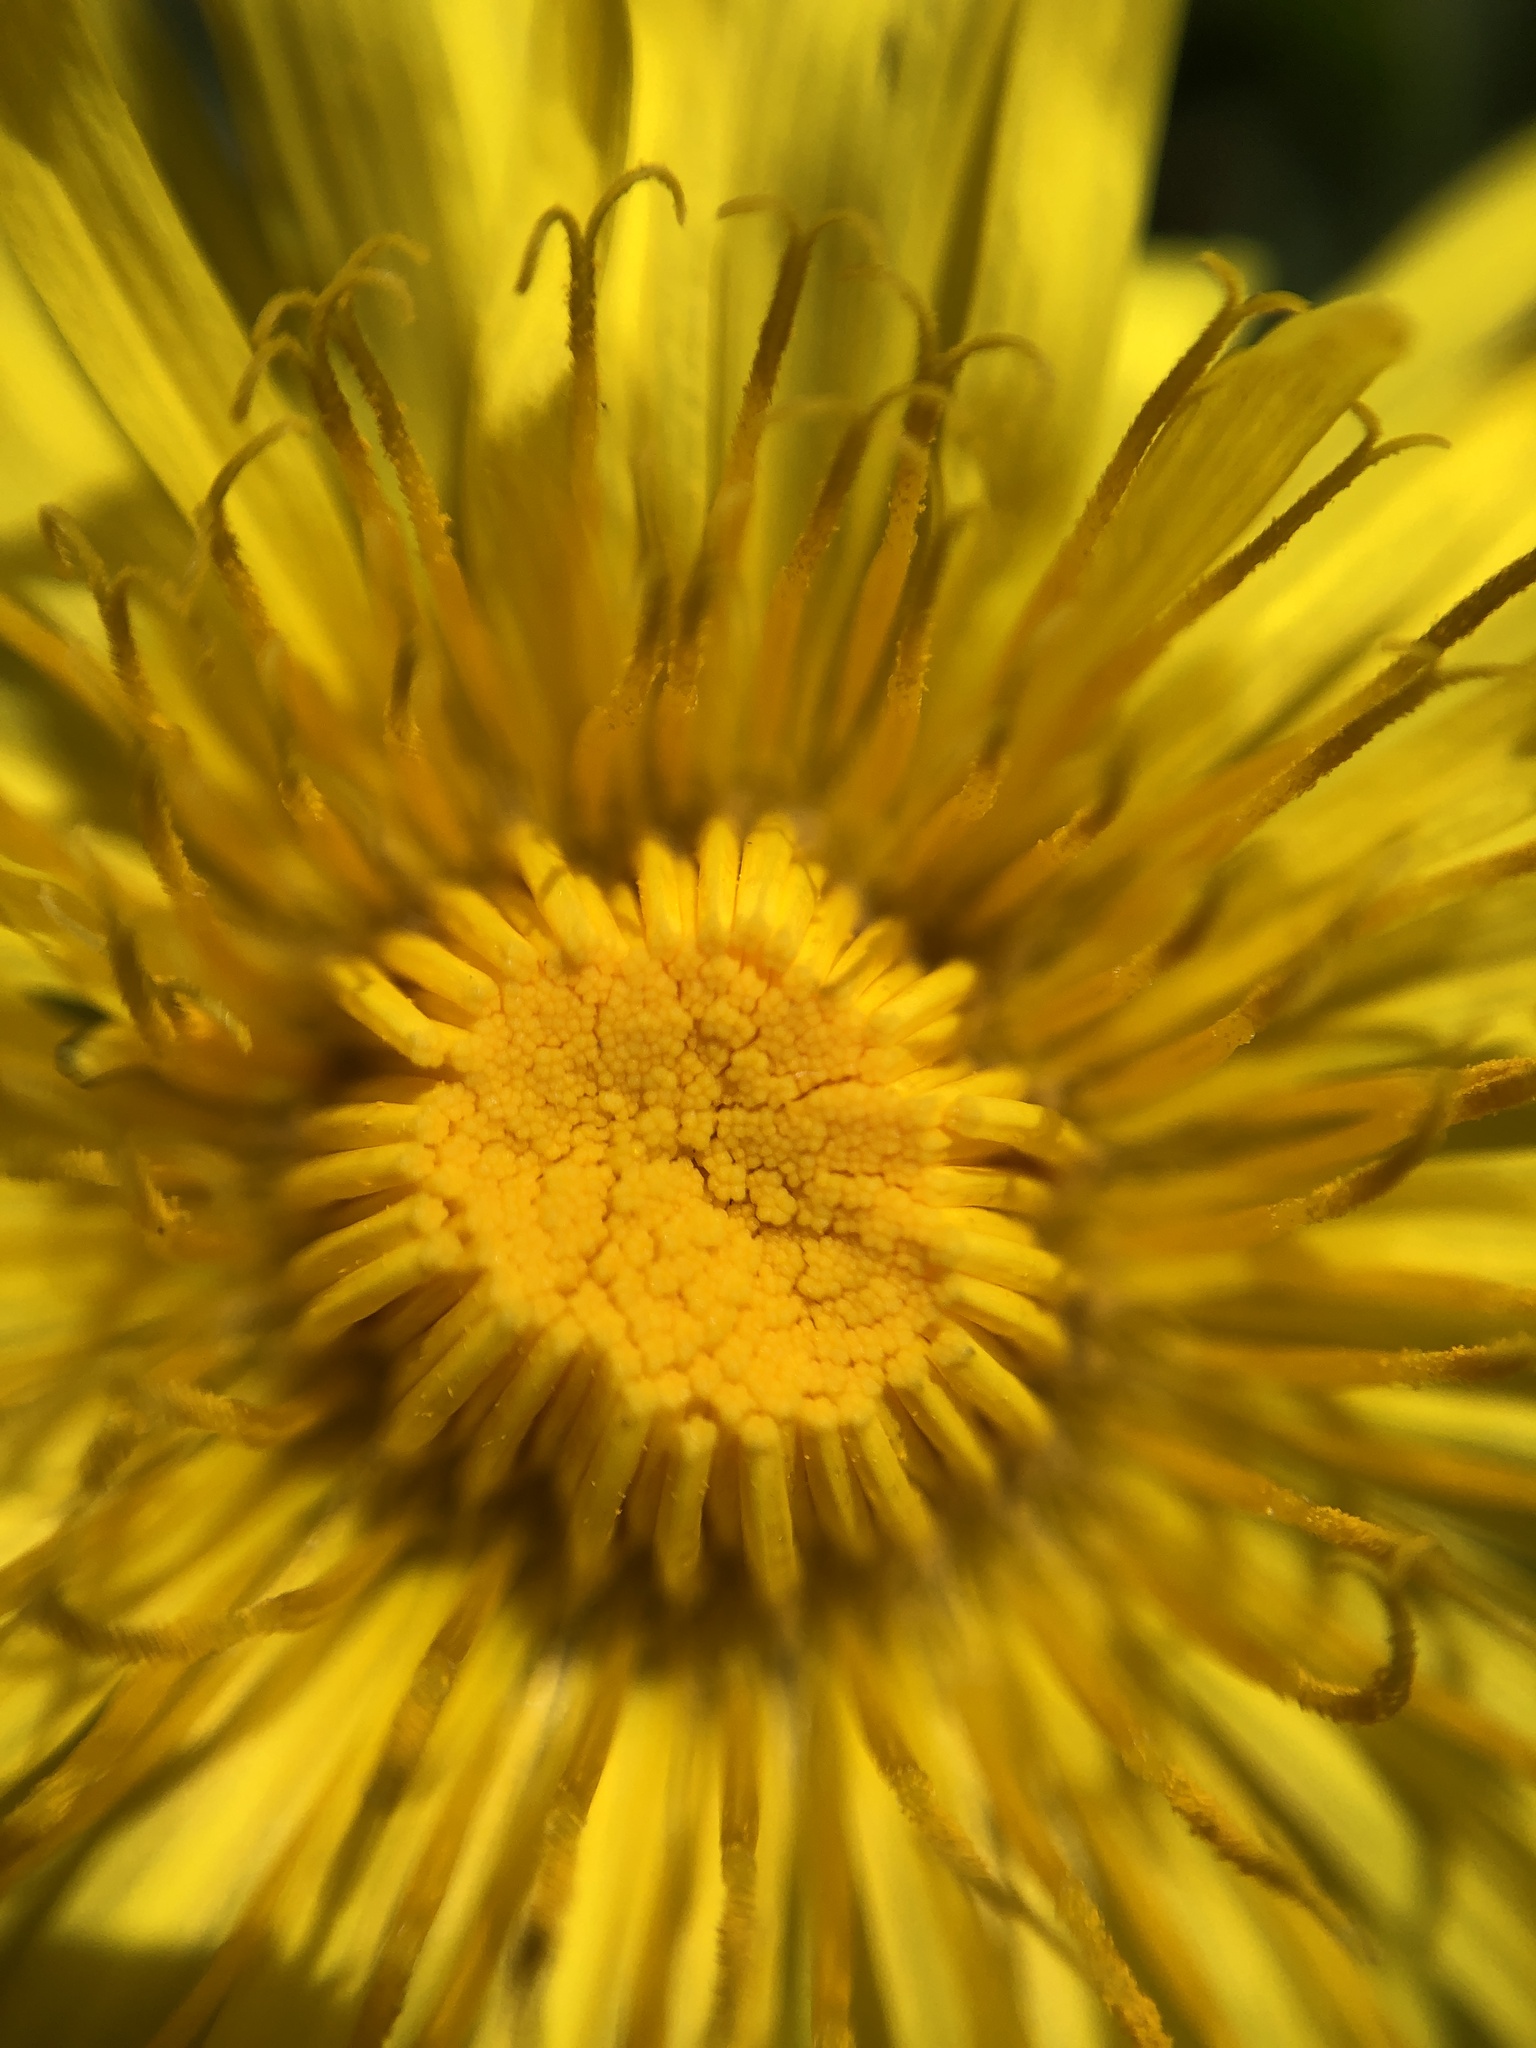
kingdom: Plantae
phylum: Tracheophyta
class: Magnoliopsida
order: Asterales
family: Asteraceae
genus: Taraxacum
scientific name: Taraxacum
